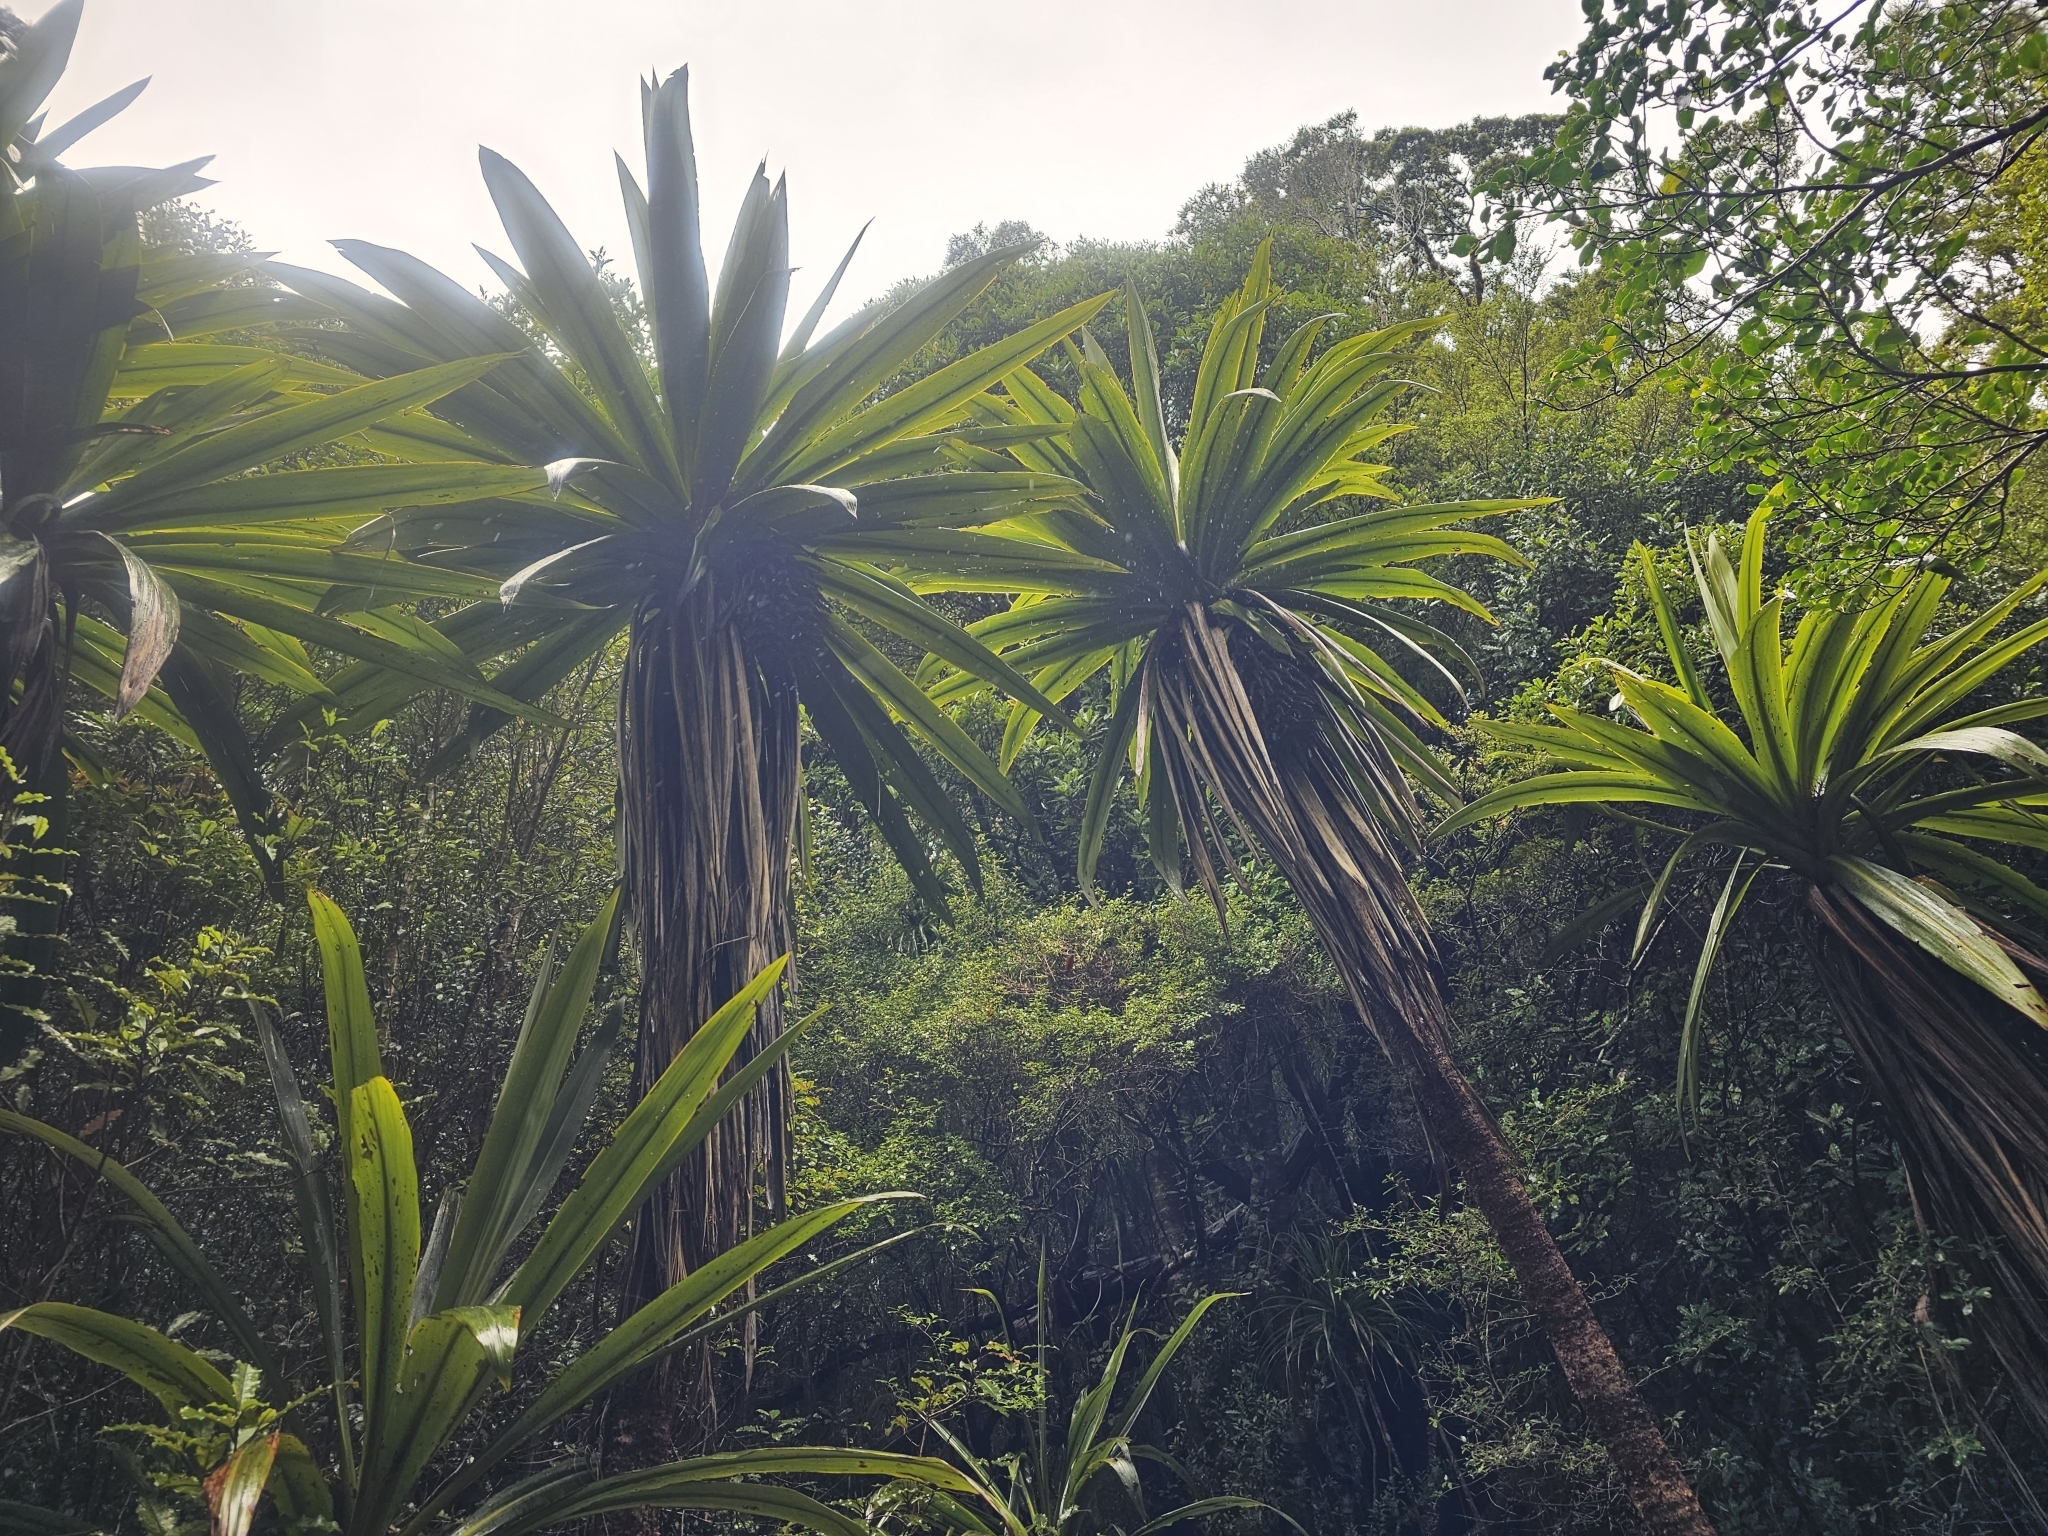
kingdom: Plantae
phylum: Tracheophyta
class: Liliopsida
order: Asparagales
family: Asparagaceae
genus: Cordyline
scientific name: Cordyline indivisa
